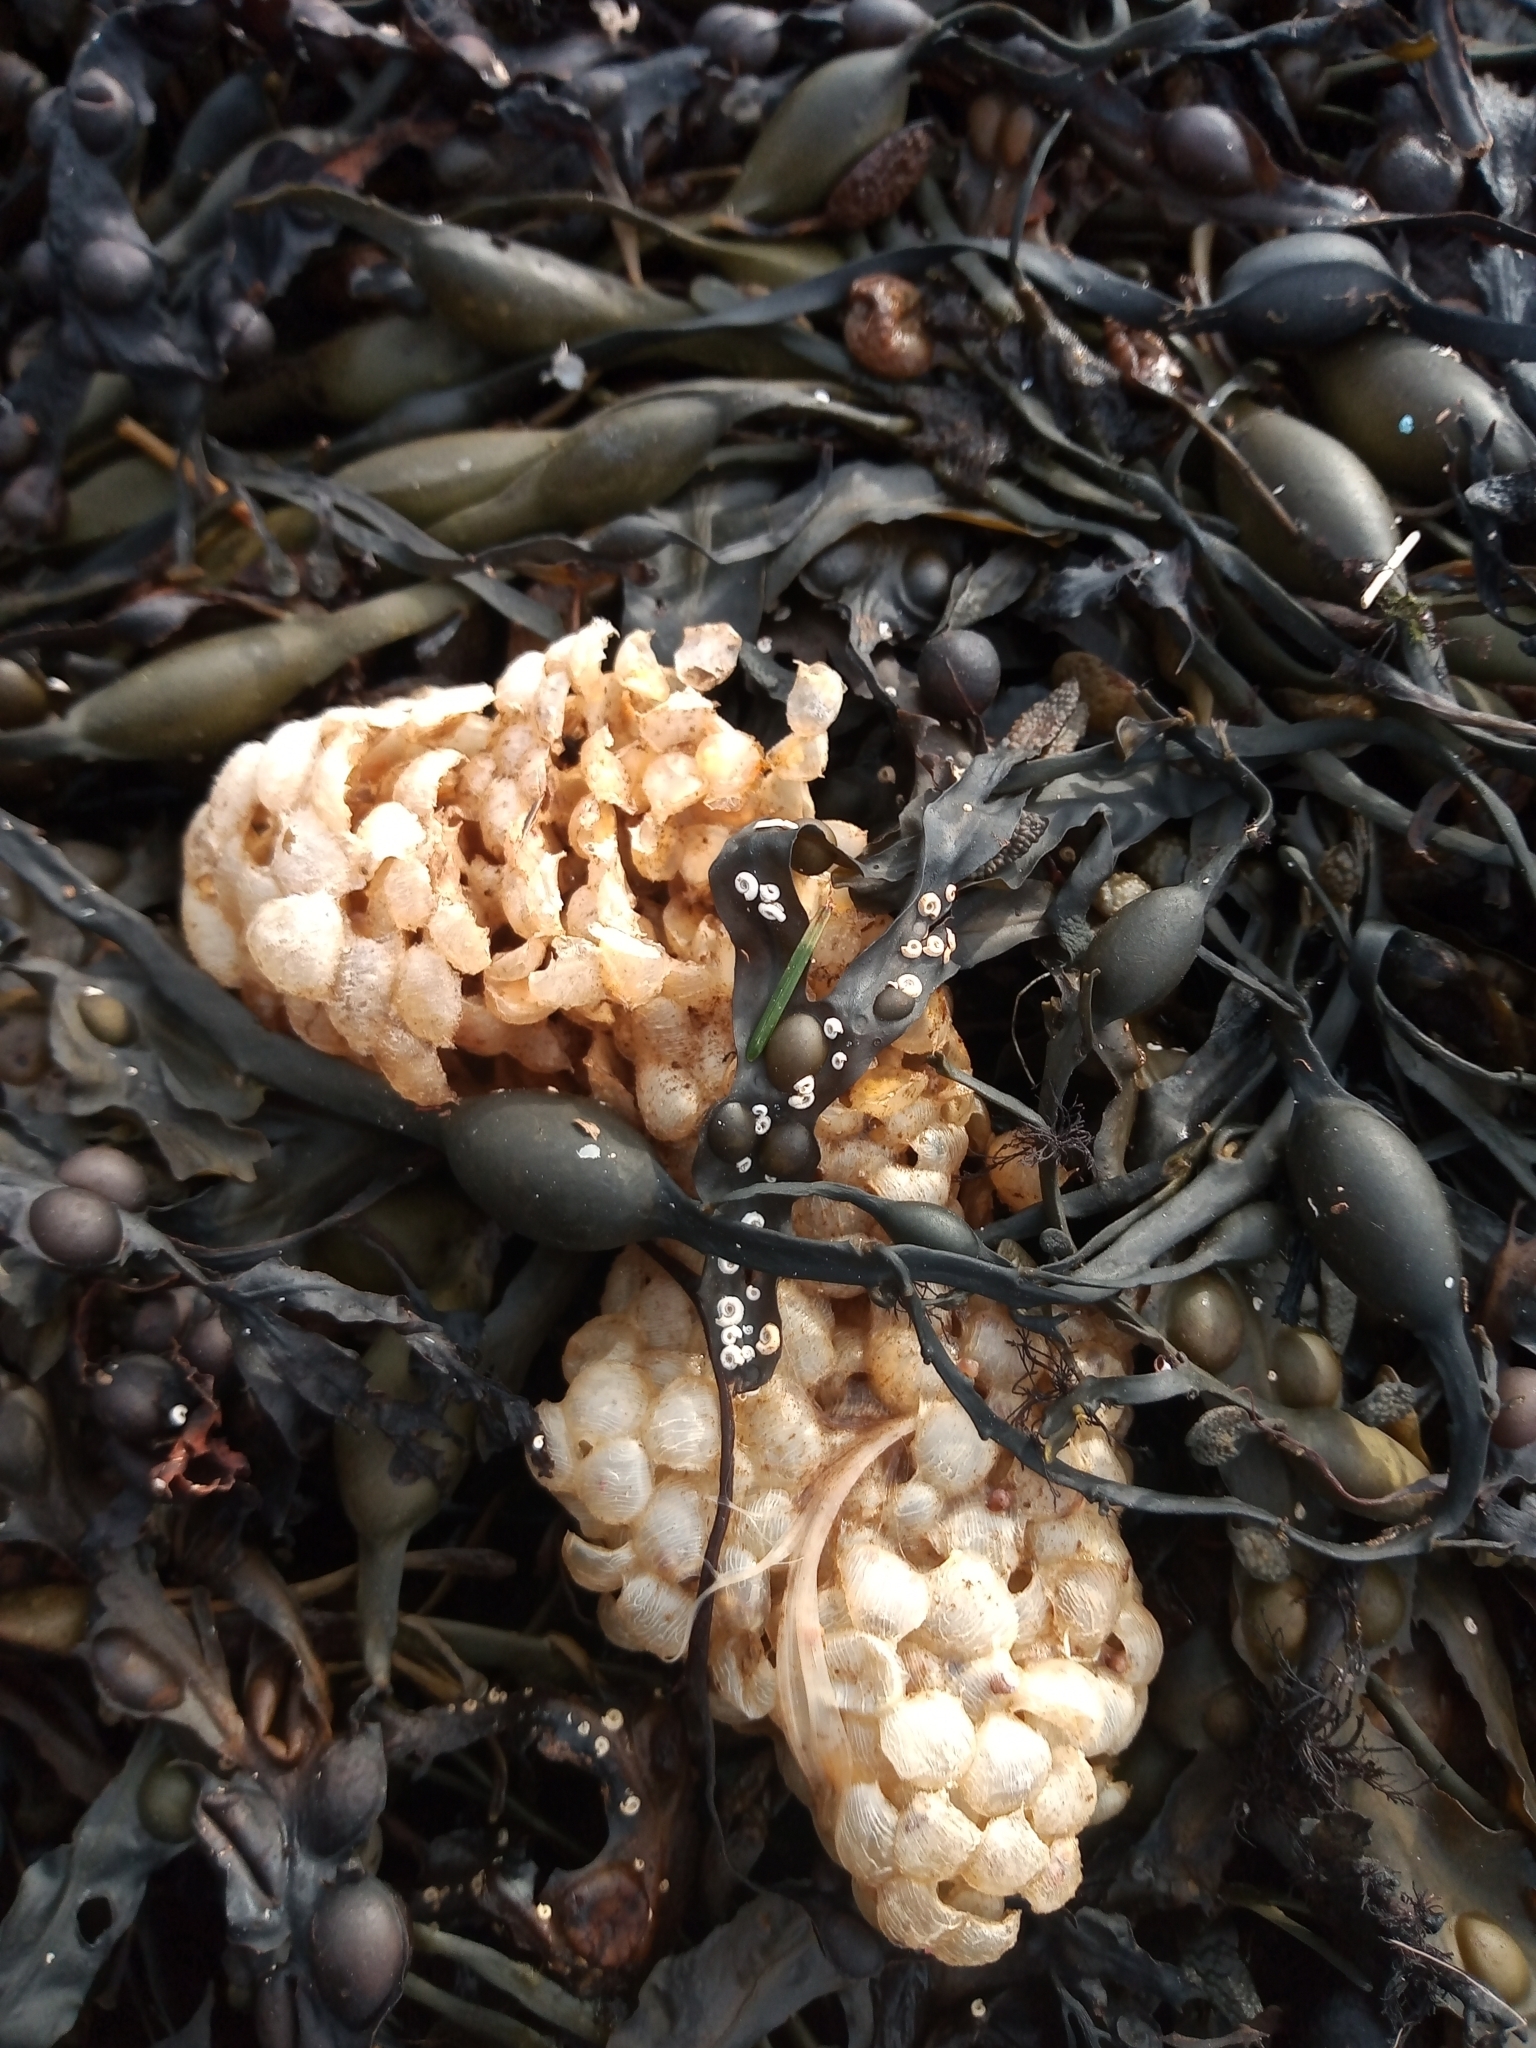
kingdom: Animalia
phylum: Mollusca
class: Gastropoda
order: Neogastropoda
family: Buccinidae
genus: Buccinum
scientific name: Buccinum undatum
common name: Common whelk
